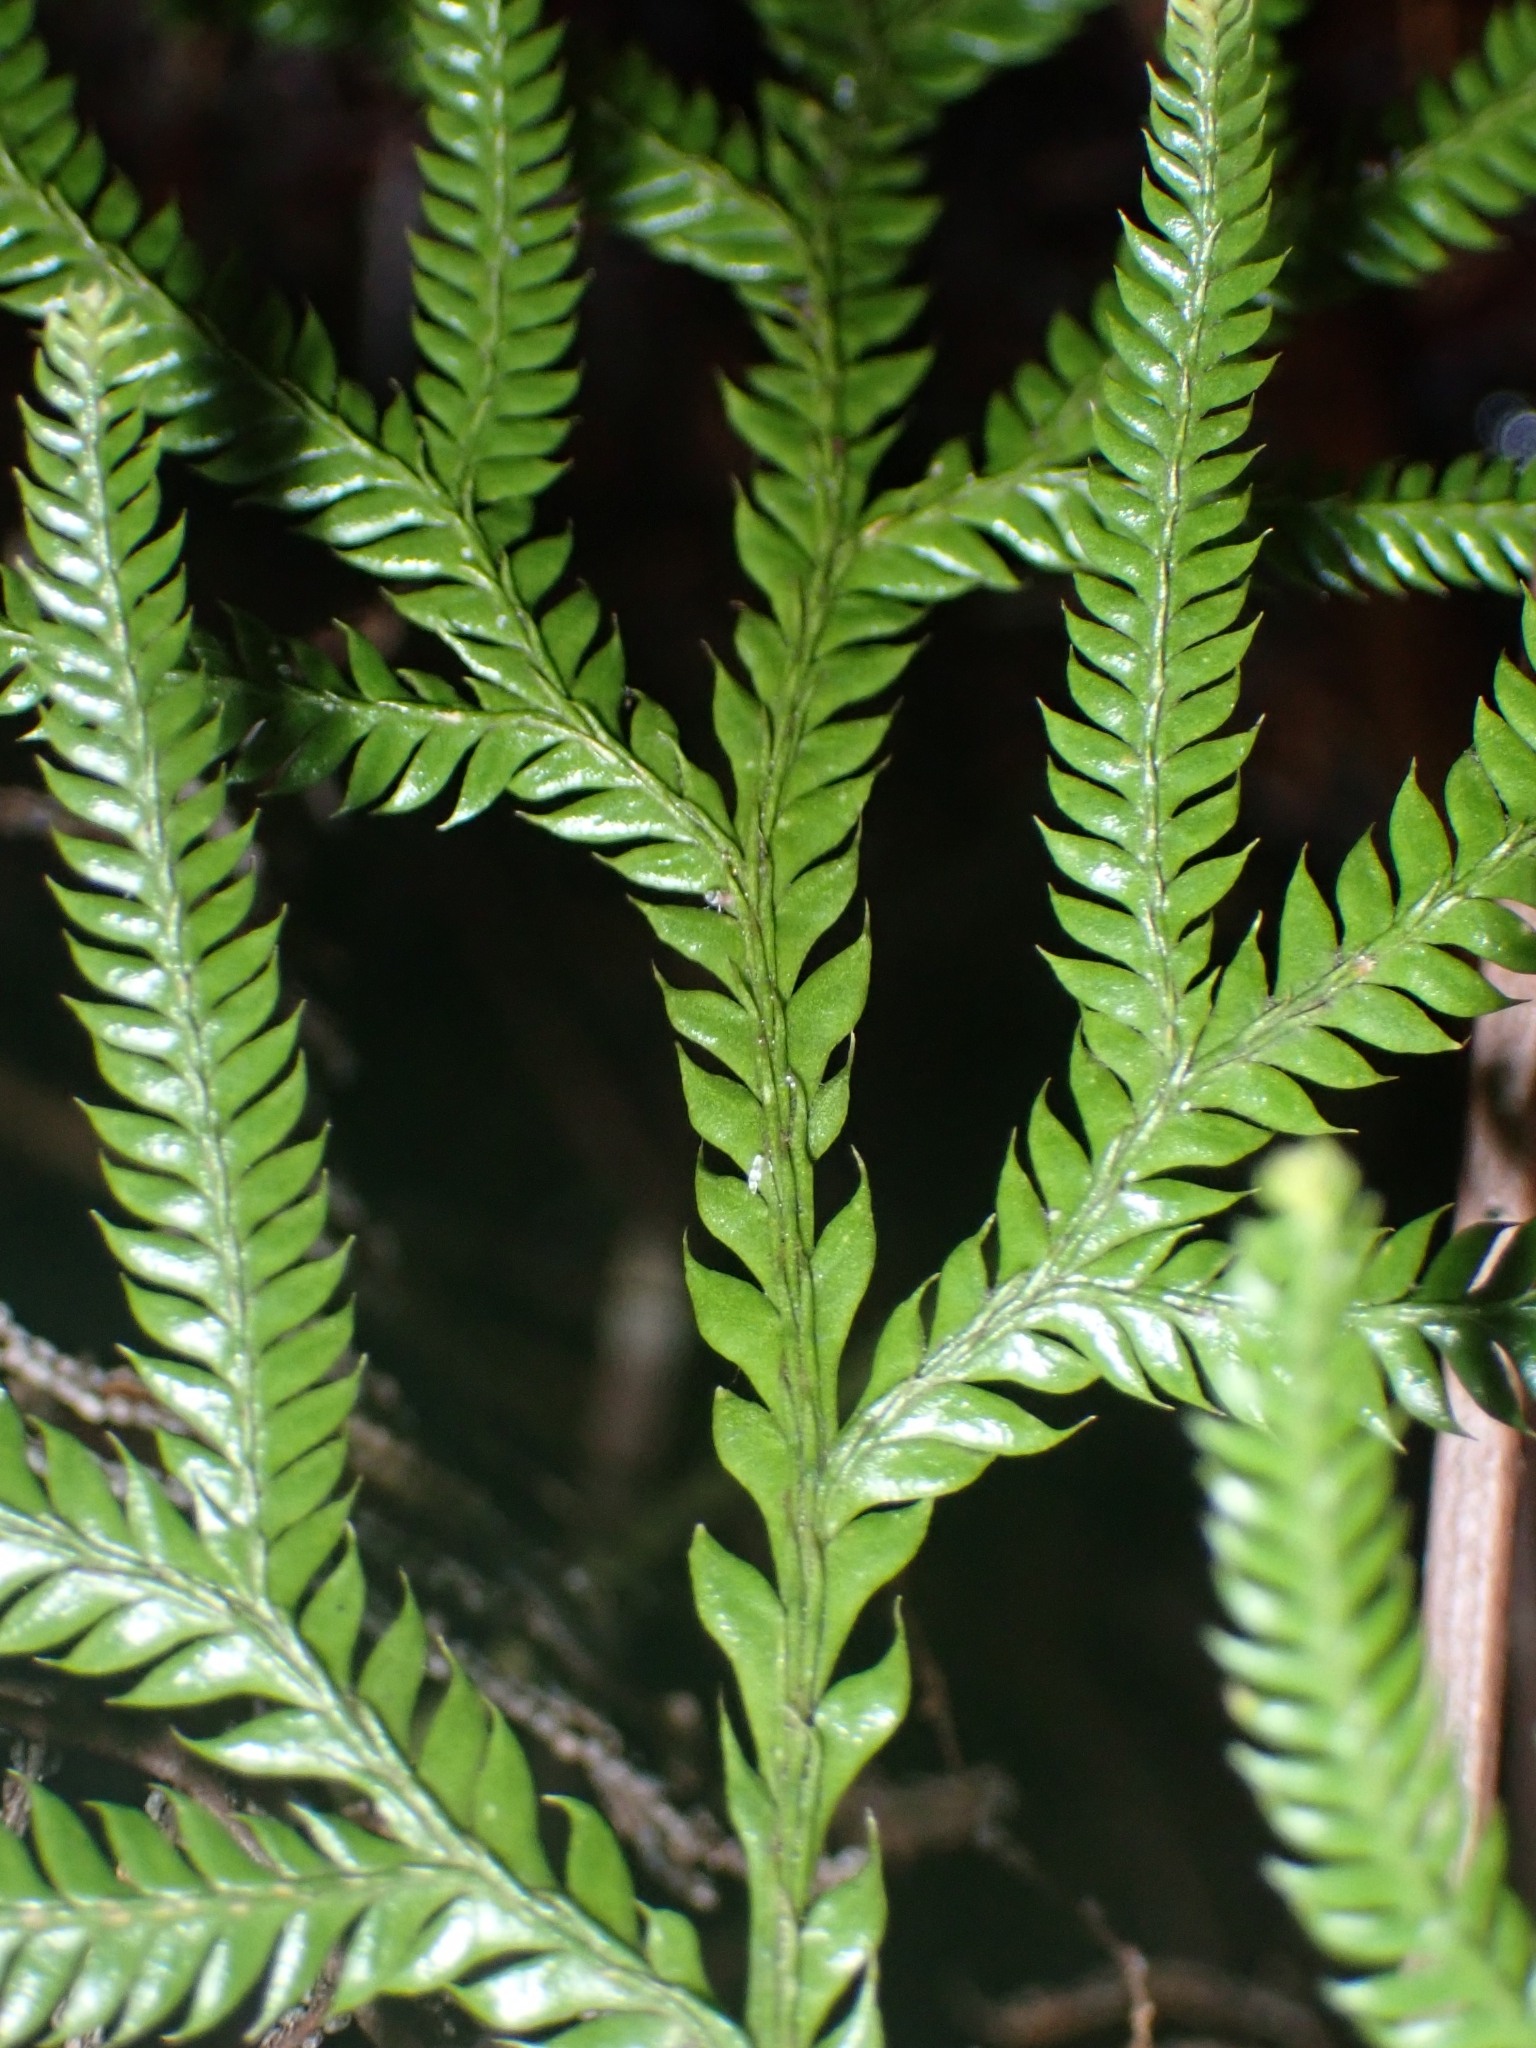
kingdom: Plantae
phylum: Tracheophyta
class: Lycopodiopsida
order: Lycopodiales
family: Lycopodiaceae
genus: Lycopodium
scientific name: Lycopodium volubile
